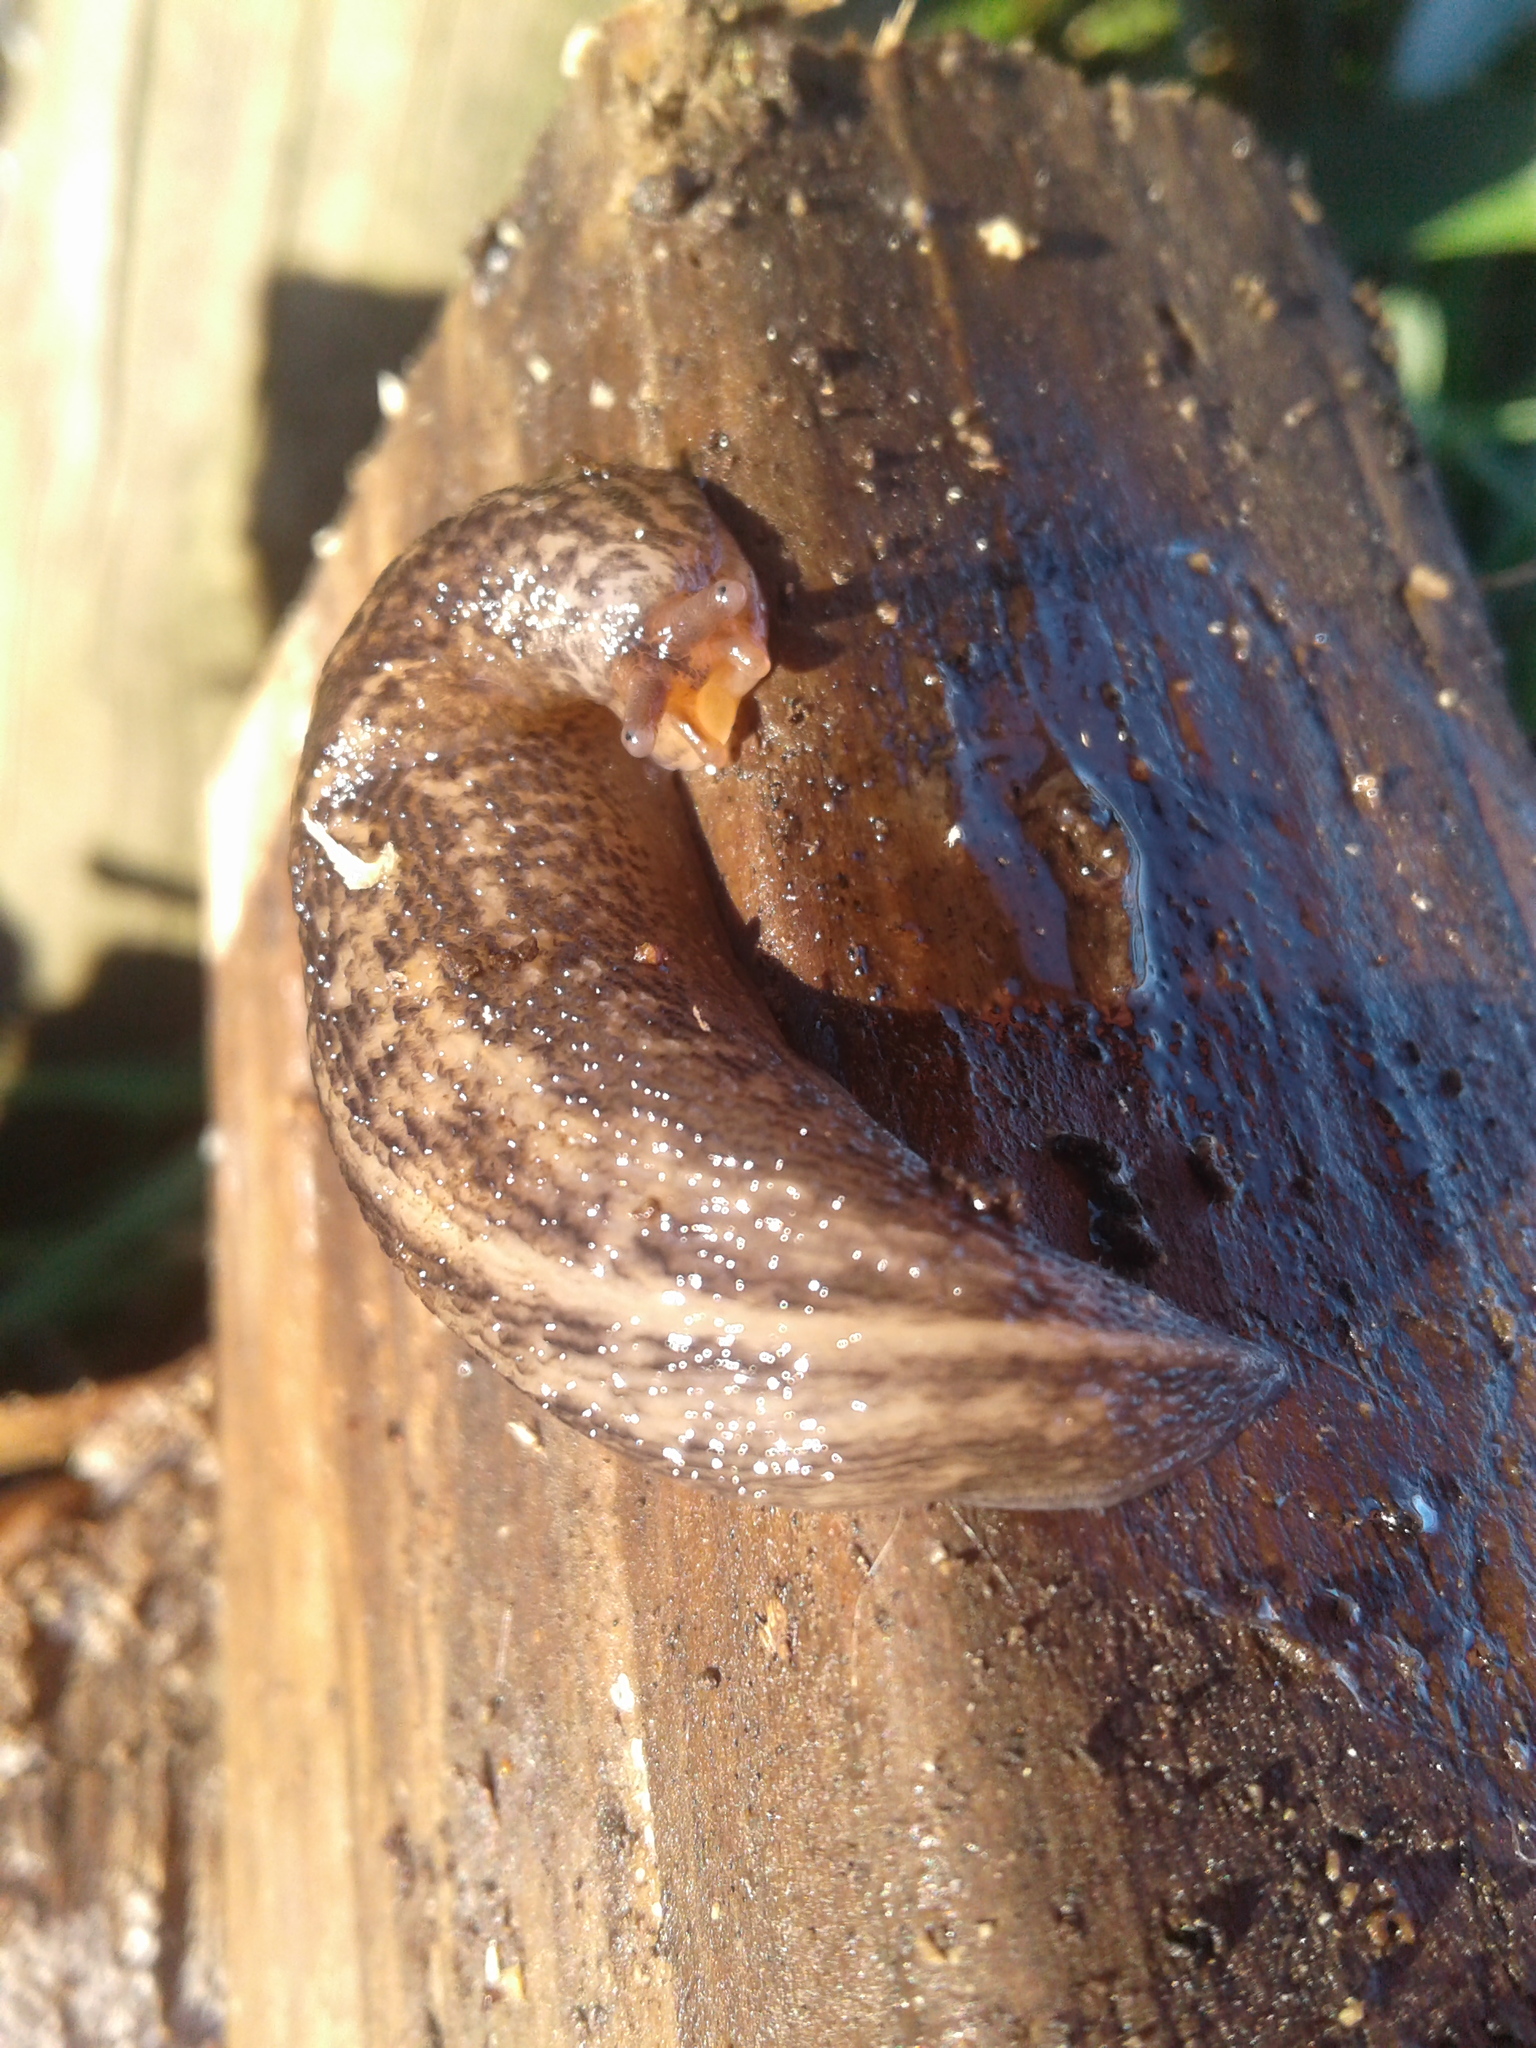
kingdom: Animalia
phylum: Mollusca
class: Gastropoda
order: Stylommatophora
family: Limacidae
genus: Limax
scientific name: Limax maximus
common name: Great grey slug
